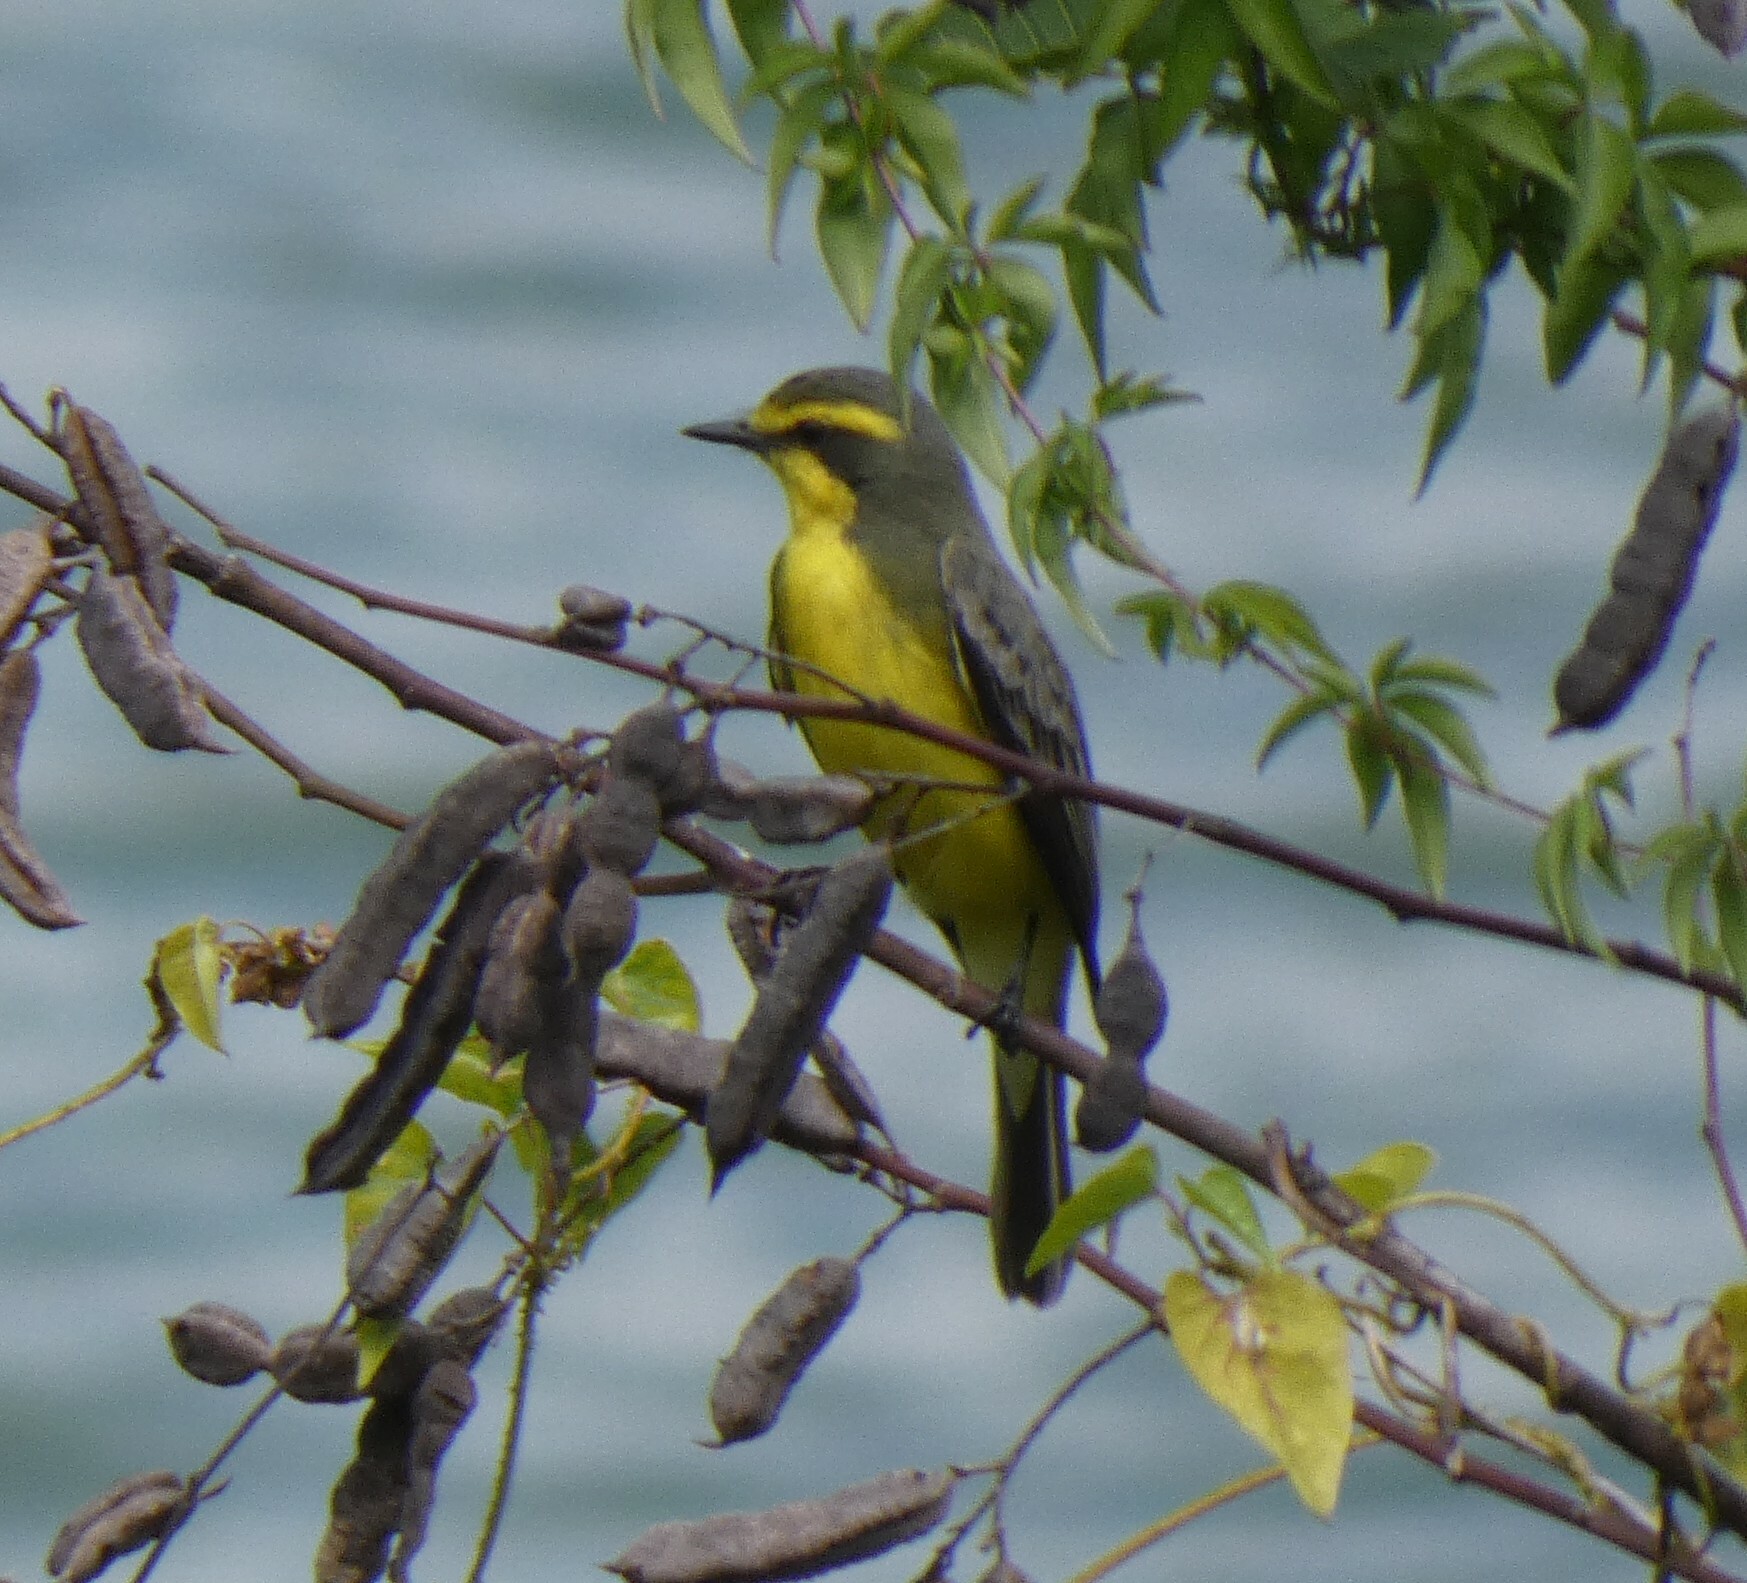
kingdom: Animalia
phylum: Chordata
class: Aves
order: Passeriformes
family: Tyrannidae
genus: Satrapa
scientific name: Satrapa icterophrys
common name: Yellow-browed tyrant
